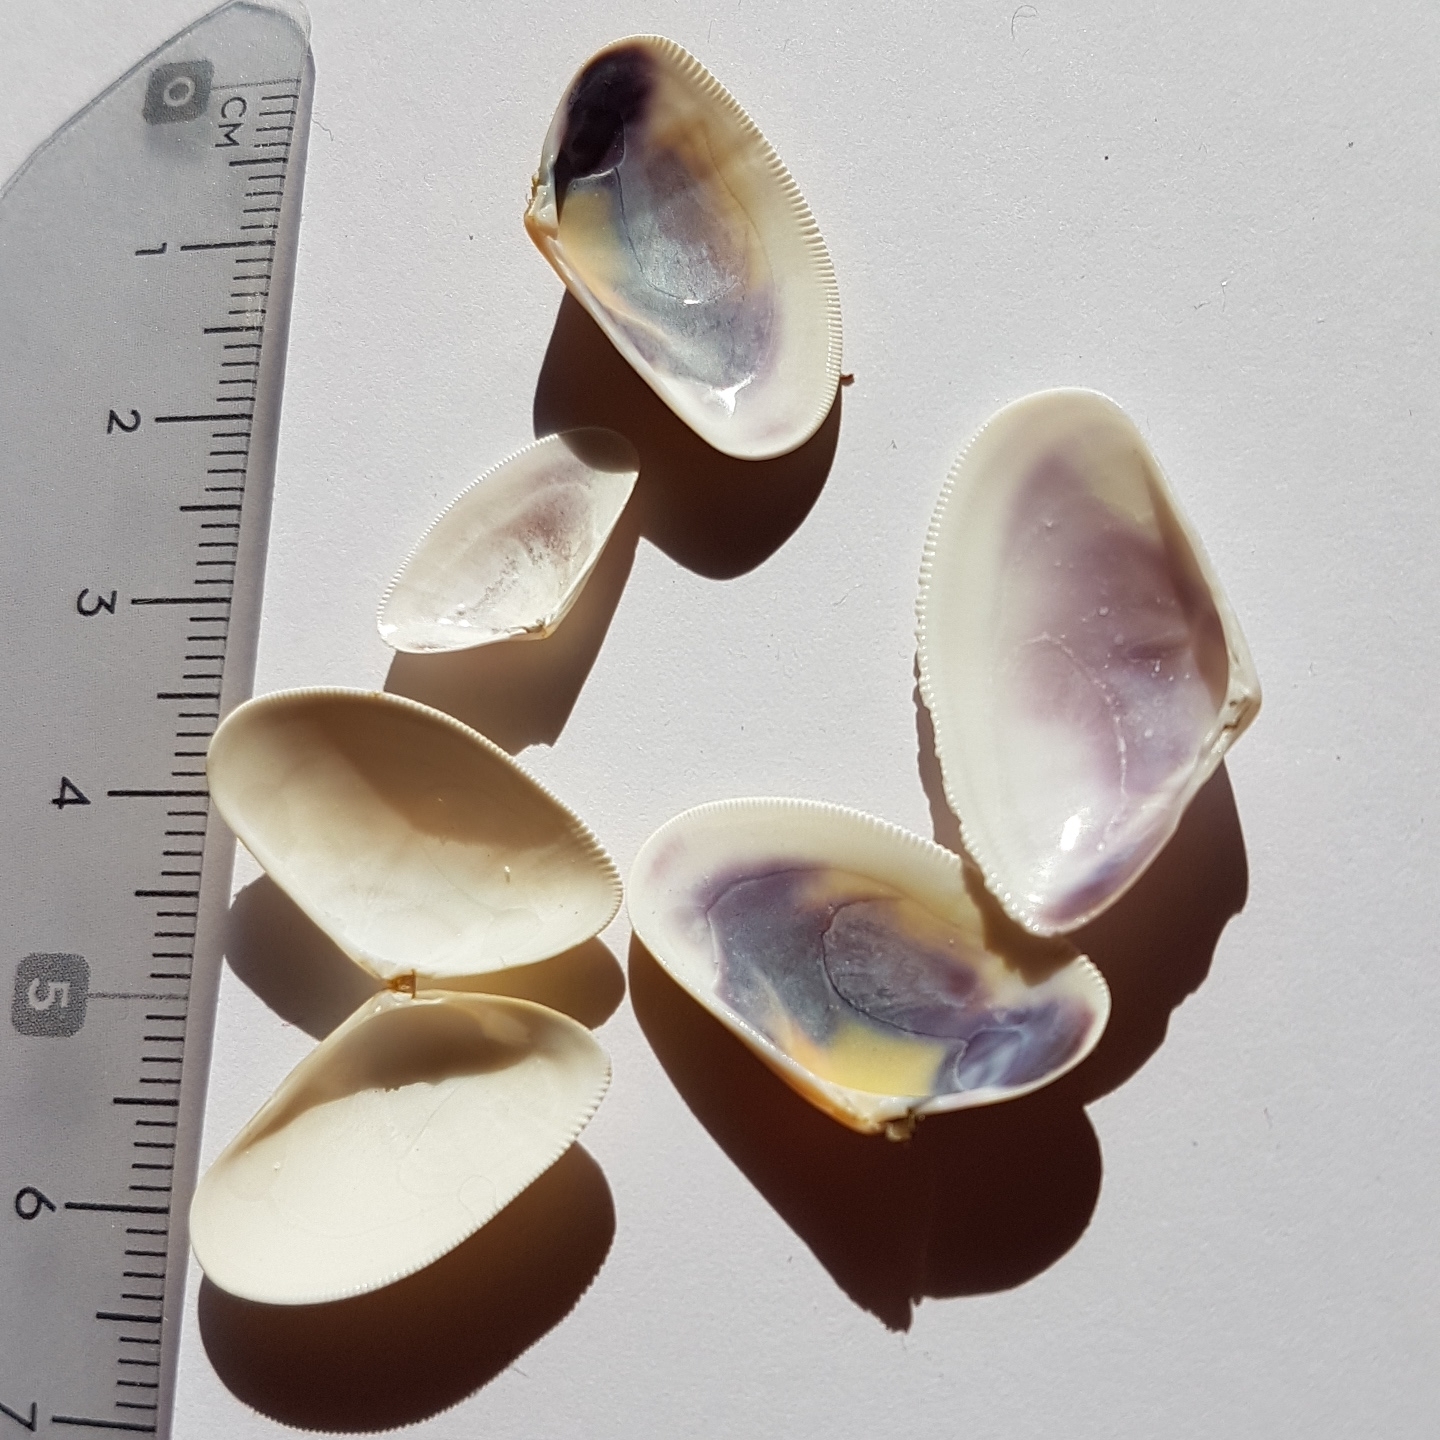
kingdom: Animalia
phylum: Mollusca
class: Bivalvia
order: Cardiida
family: Donacidae
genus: Donax
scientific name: Donax trunculus
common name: Truncate donax
